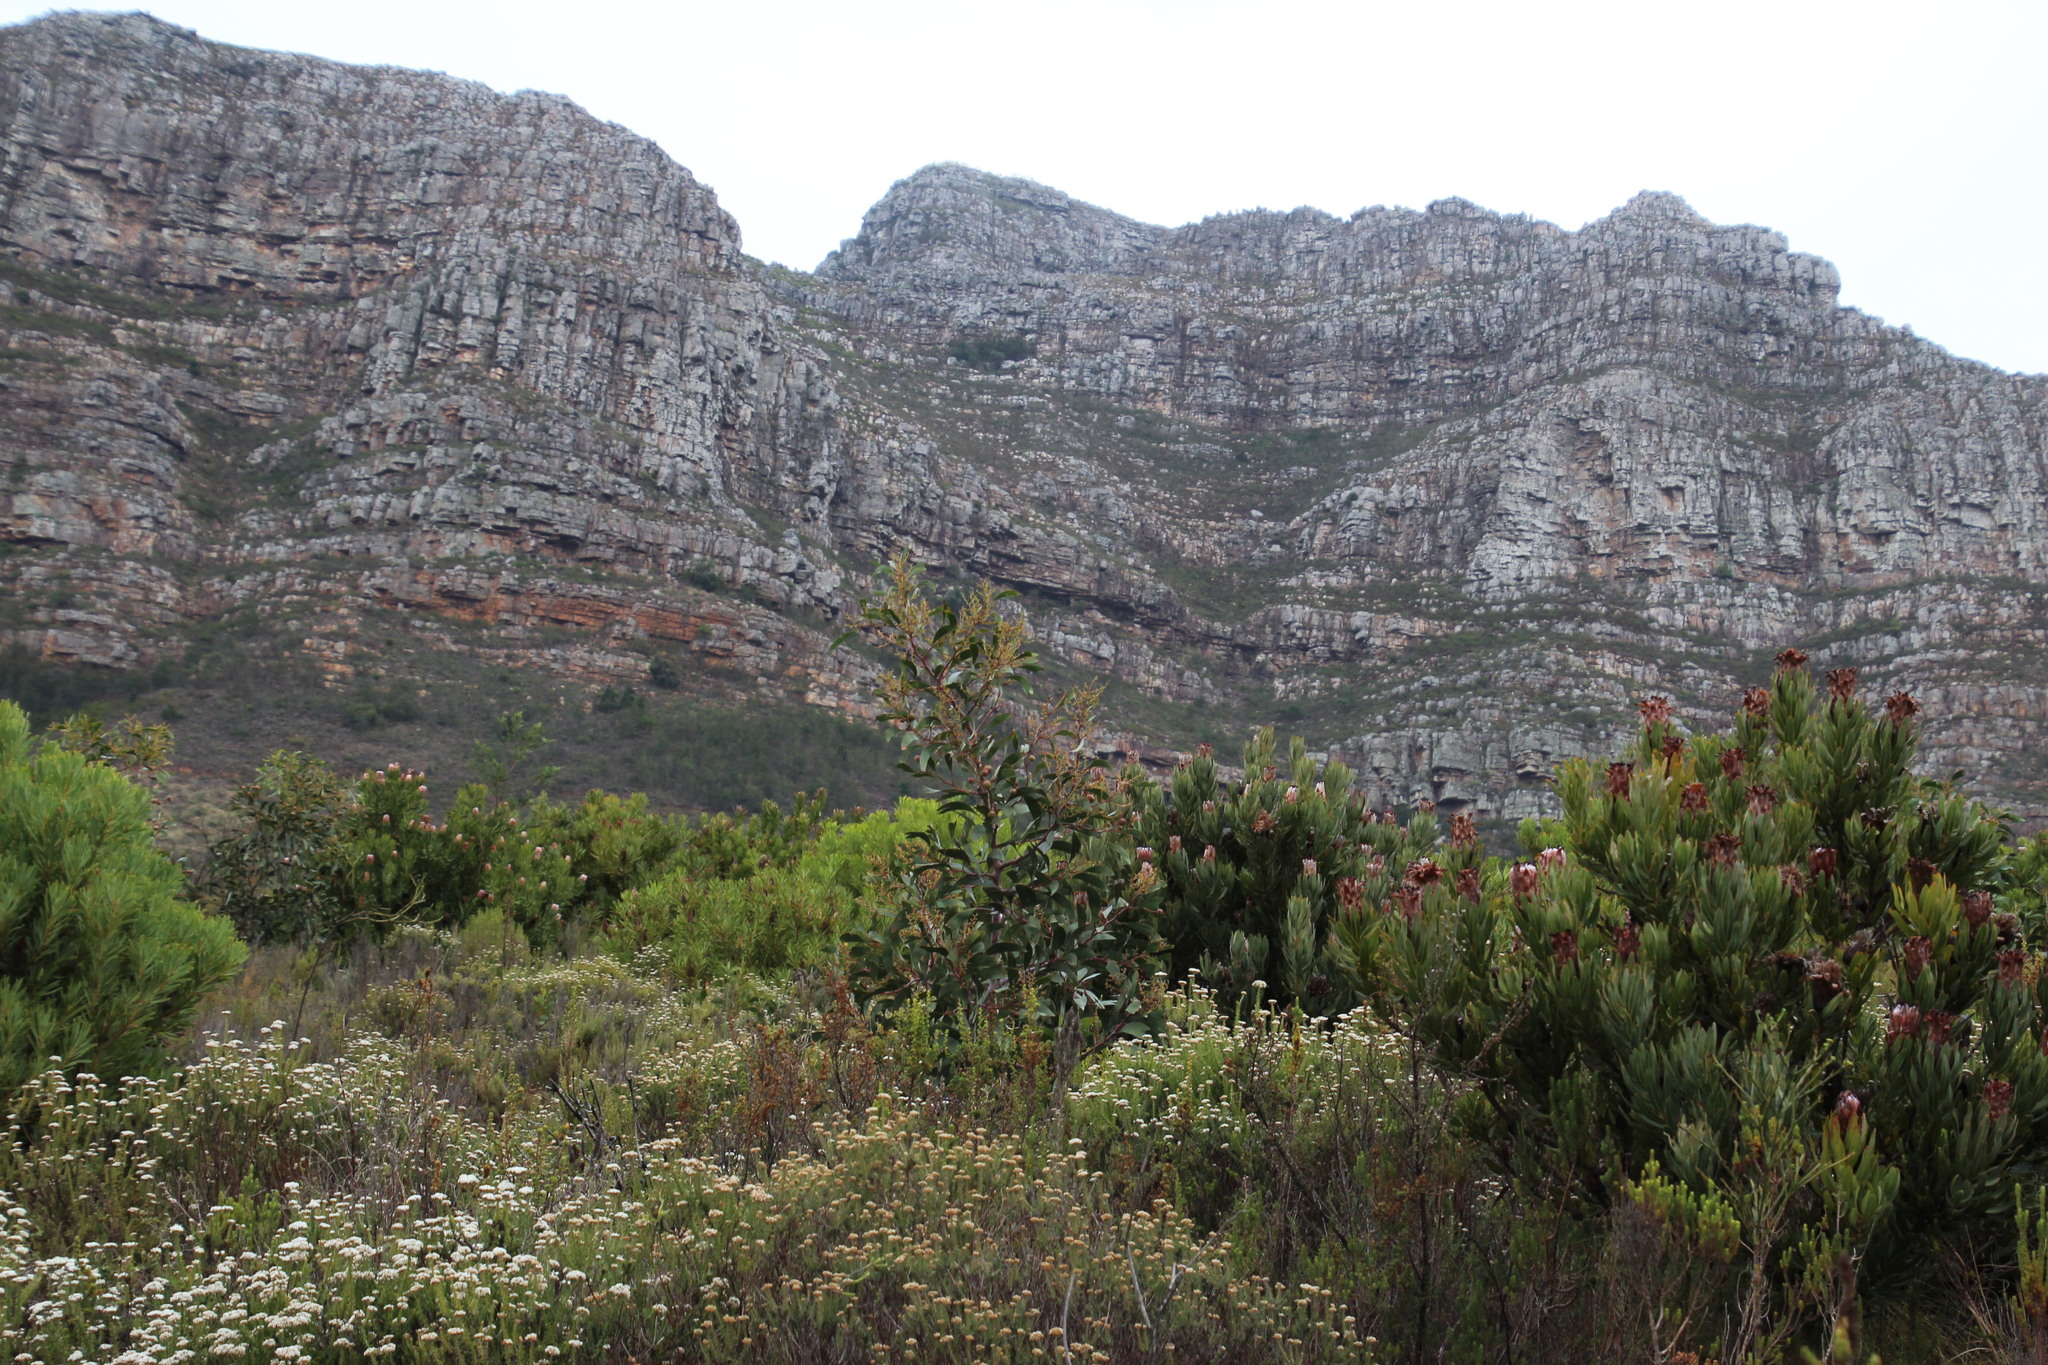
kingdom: Animalia
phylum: Arthropoda
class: Insecta
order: Hymenoptera
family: Pteromalidae
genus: Trichilogaster
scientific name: Trichilogaster signiventris
